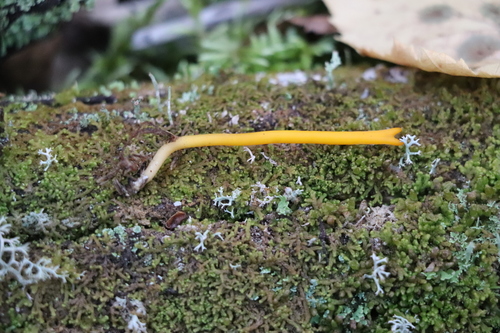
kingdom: Fungi
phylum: Basidiomycota
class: Dacrymycetes
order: Dacrymycetales
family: Dacrymycetaceae
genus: Calocera
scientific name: Calocera viscosa
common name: Yellow stagshorn
